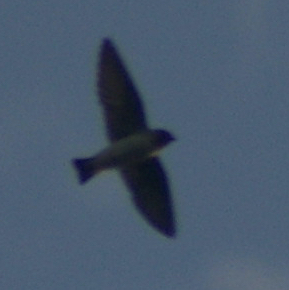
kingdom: Animalia
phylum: Chordata
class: Aves
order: Passeriformes
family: Hirundinidae
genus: Petrochelidon
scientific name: Petrochelidon pyrrhonota
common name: American cliff swallow
